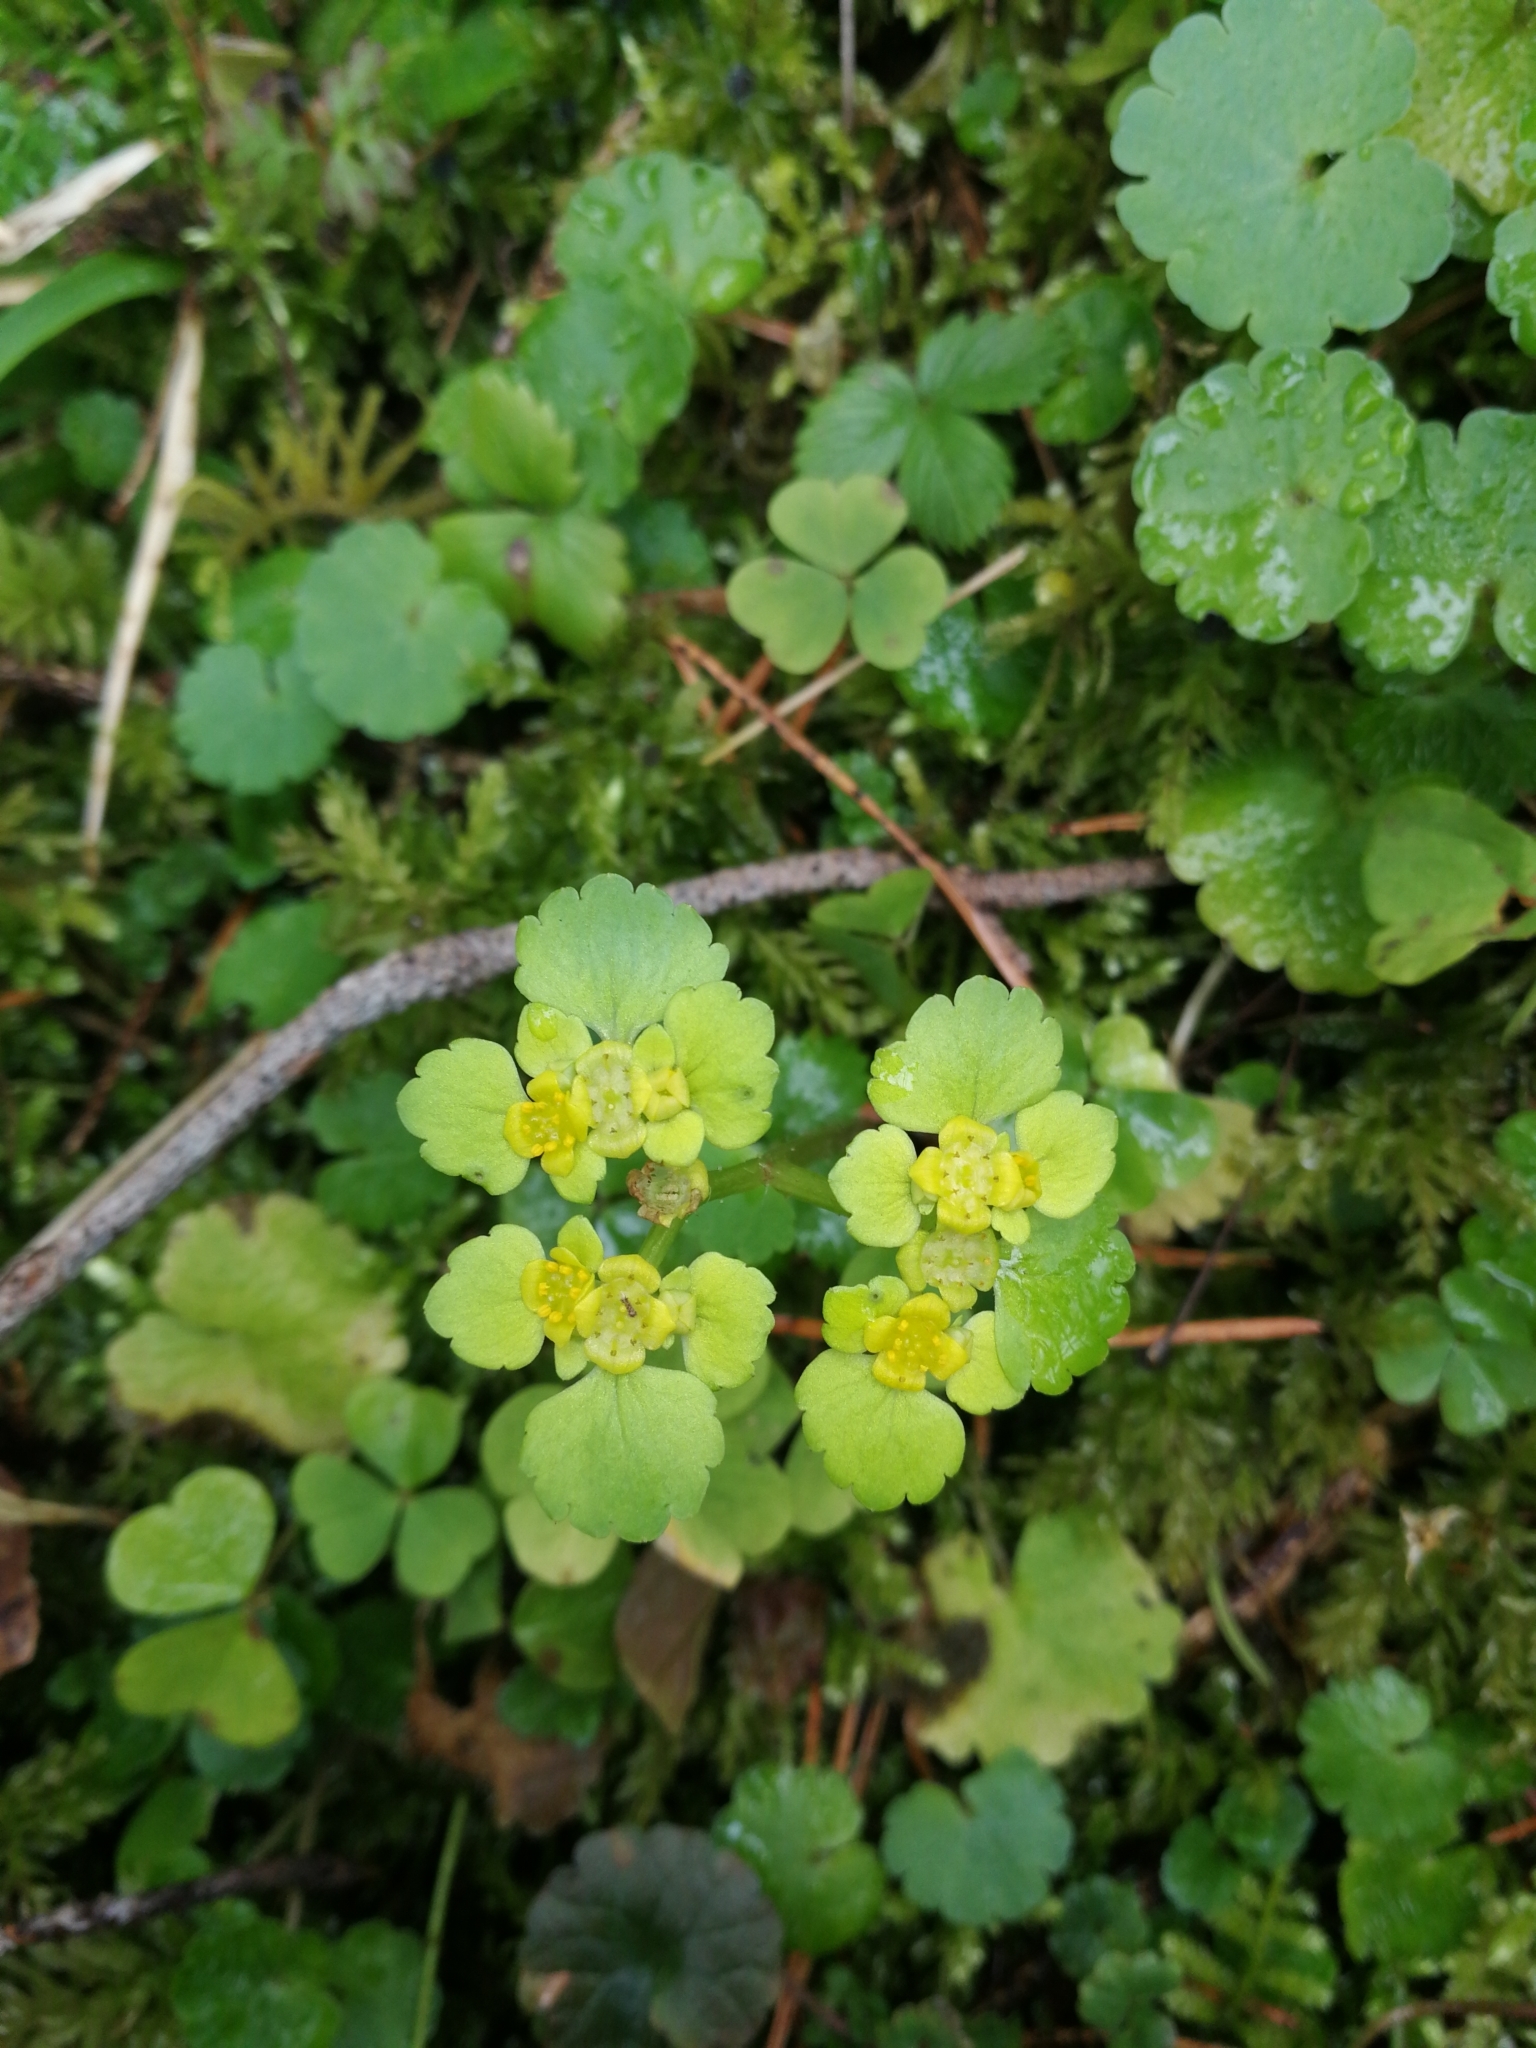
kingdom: Plantae
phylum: Tracheophyta
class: Magnoliopsida
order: Saxifragales
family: Saxifragaceae
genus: Chrysosplenium
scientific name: Chrysosplenium alternifolium
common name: Alternate-leaved golden-saxifrage
